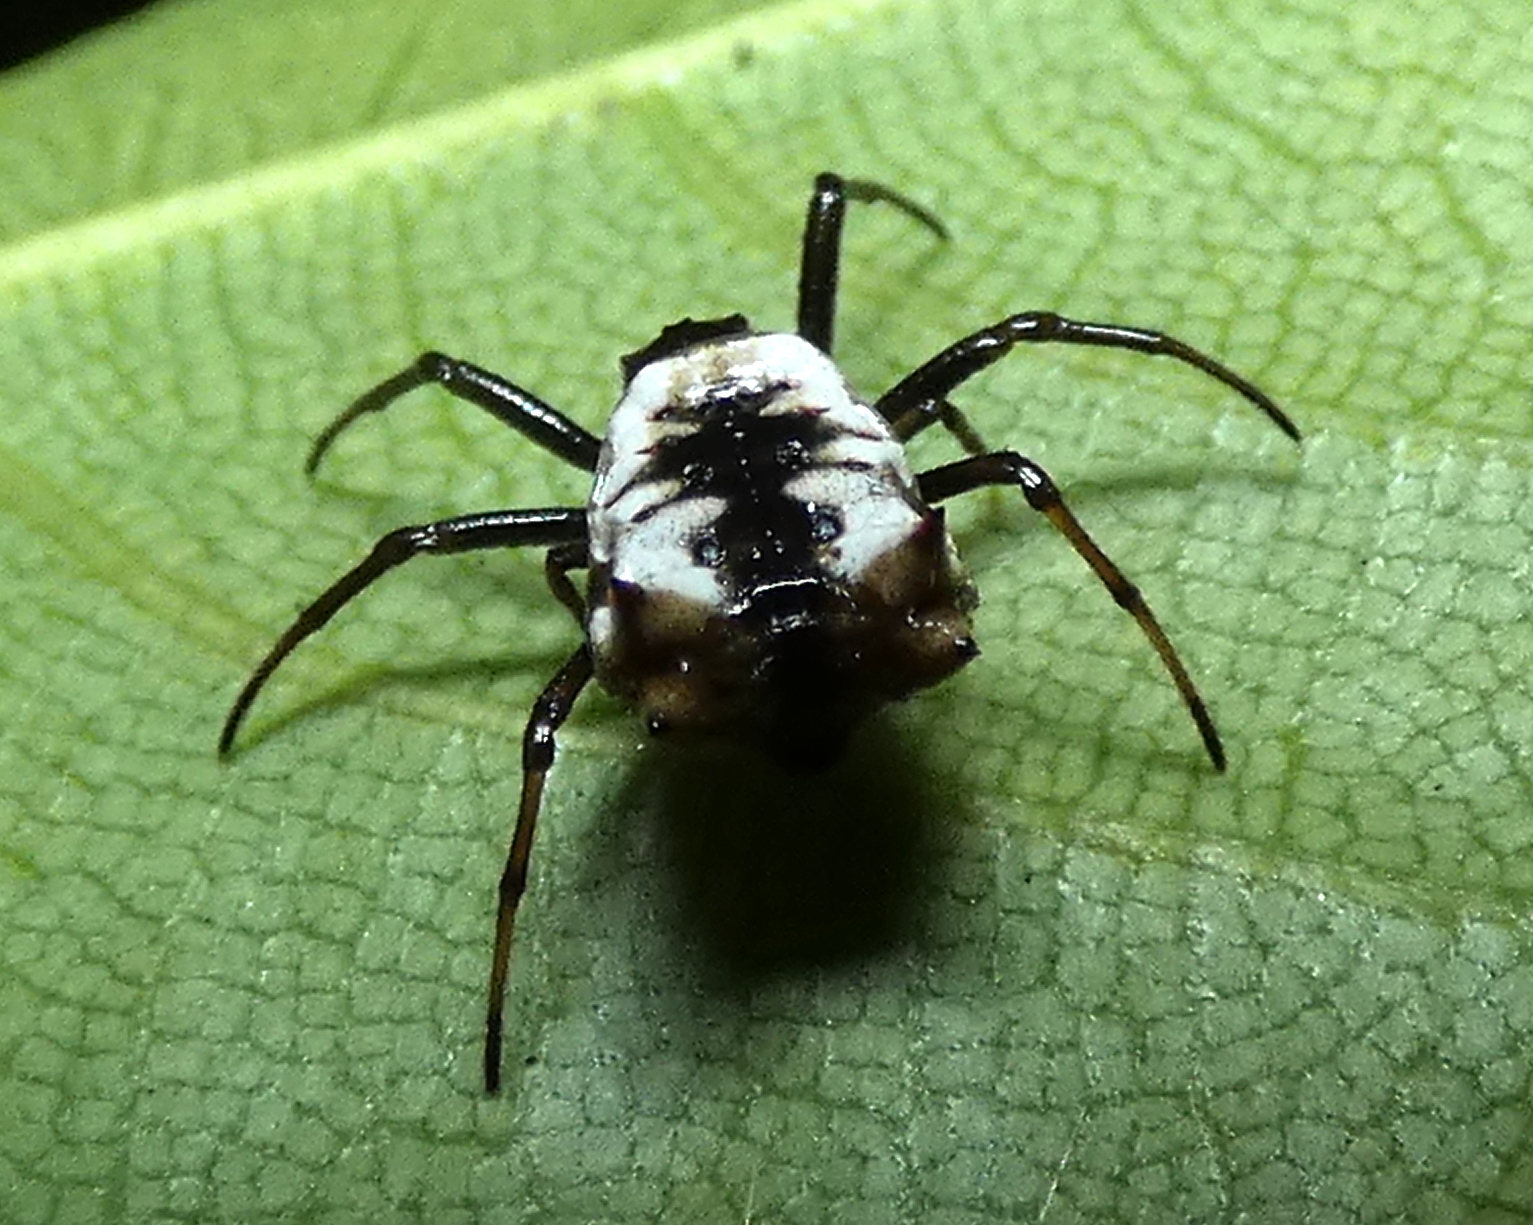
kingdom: Animalia
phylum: Arthropoda
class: Arachnida
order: Araneae
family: Araneidae
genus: Micrathena
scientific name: Micrathena patruelis
